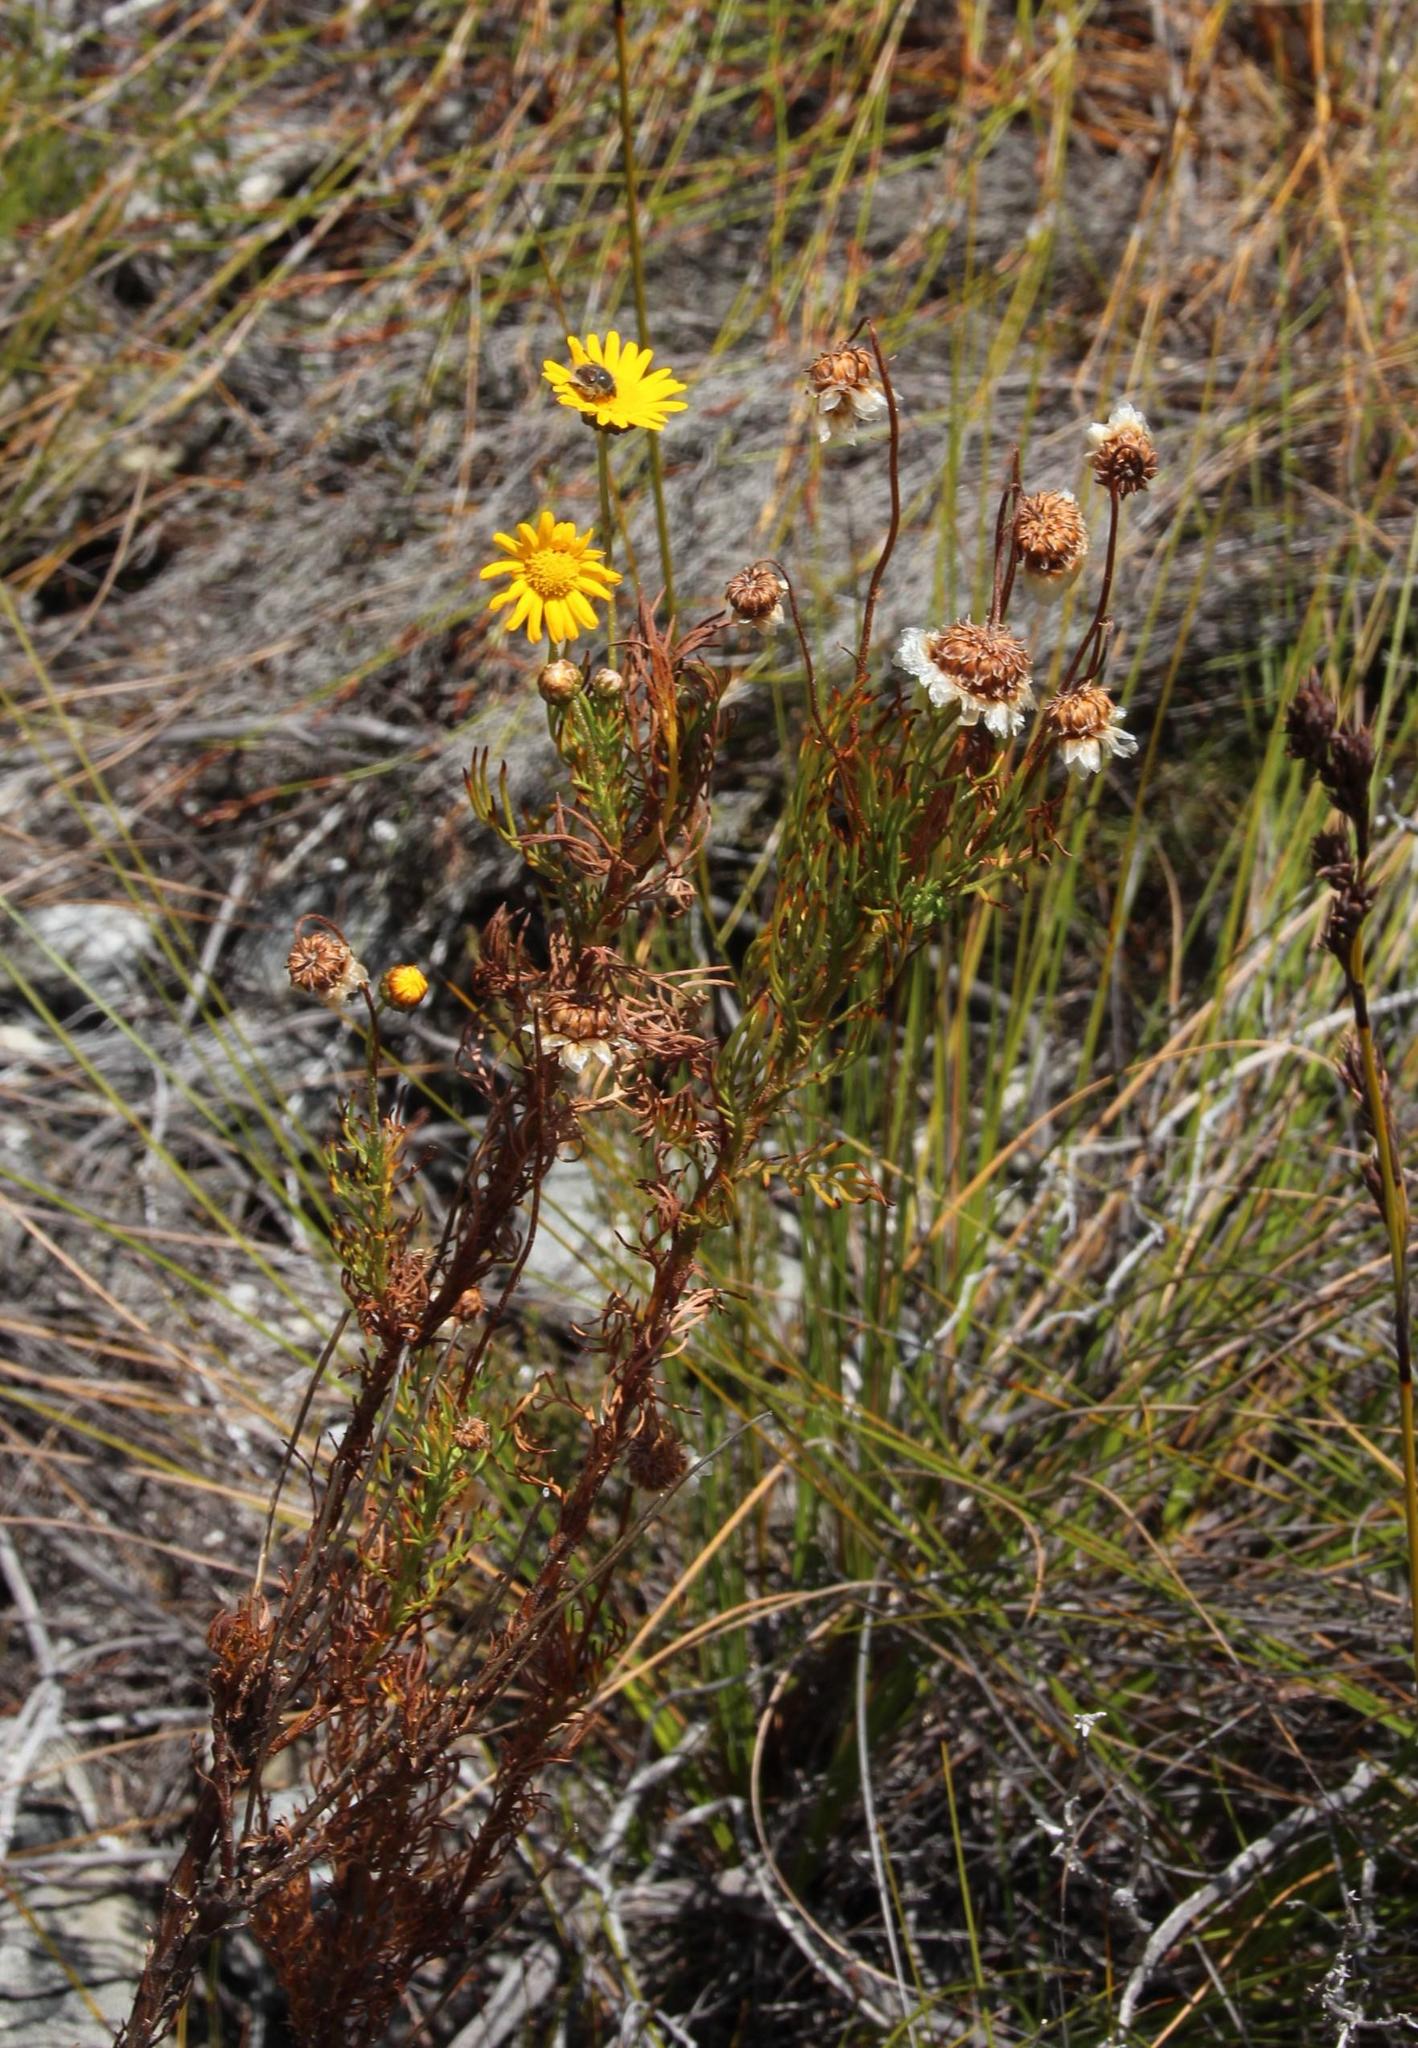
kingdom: Plantae
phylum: Tracheophyta
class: Magnoliopsida
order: Asterales
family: Asteraceae
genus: Ursinia
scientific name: Ursinia paleacea
